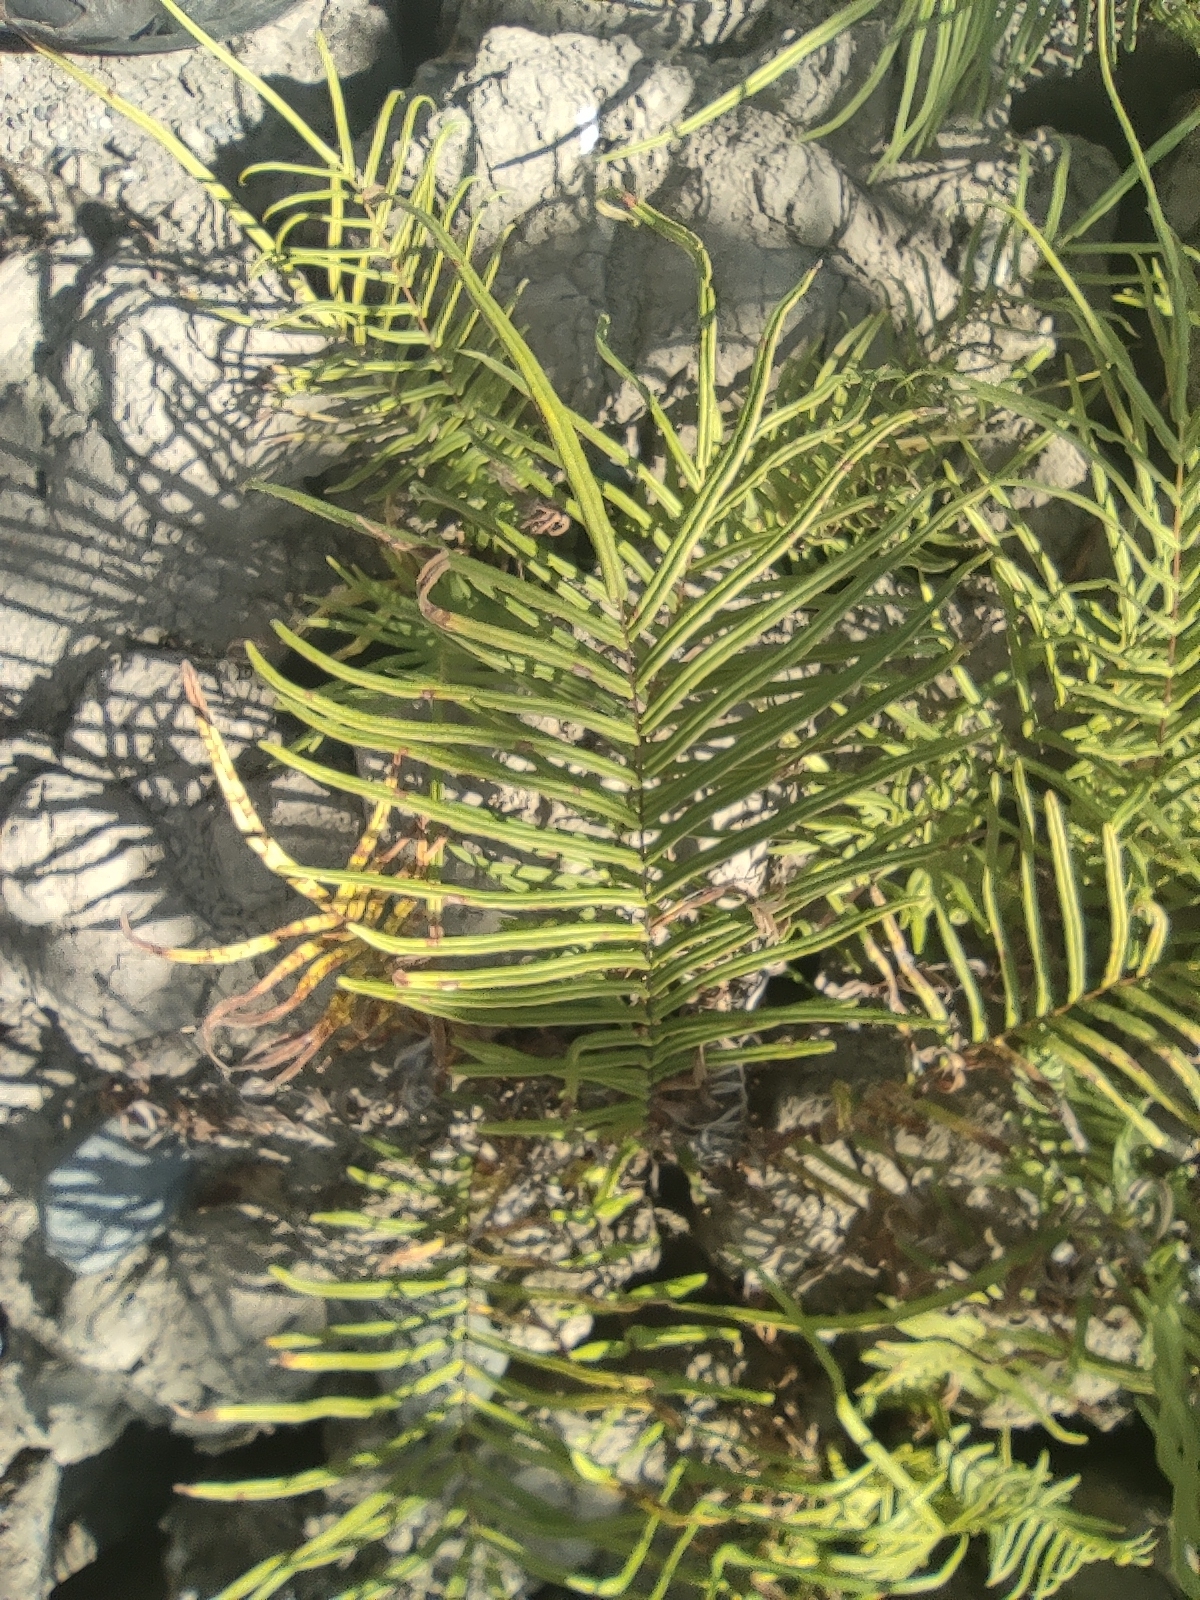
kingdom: Plantae
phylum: Tracheophyta
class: Polypodiopsida
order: Polypodiales
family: Pteridaceae
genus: Pteris
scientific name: Pteris vittata
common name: Ladder brake
